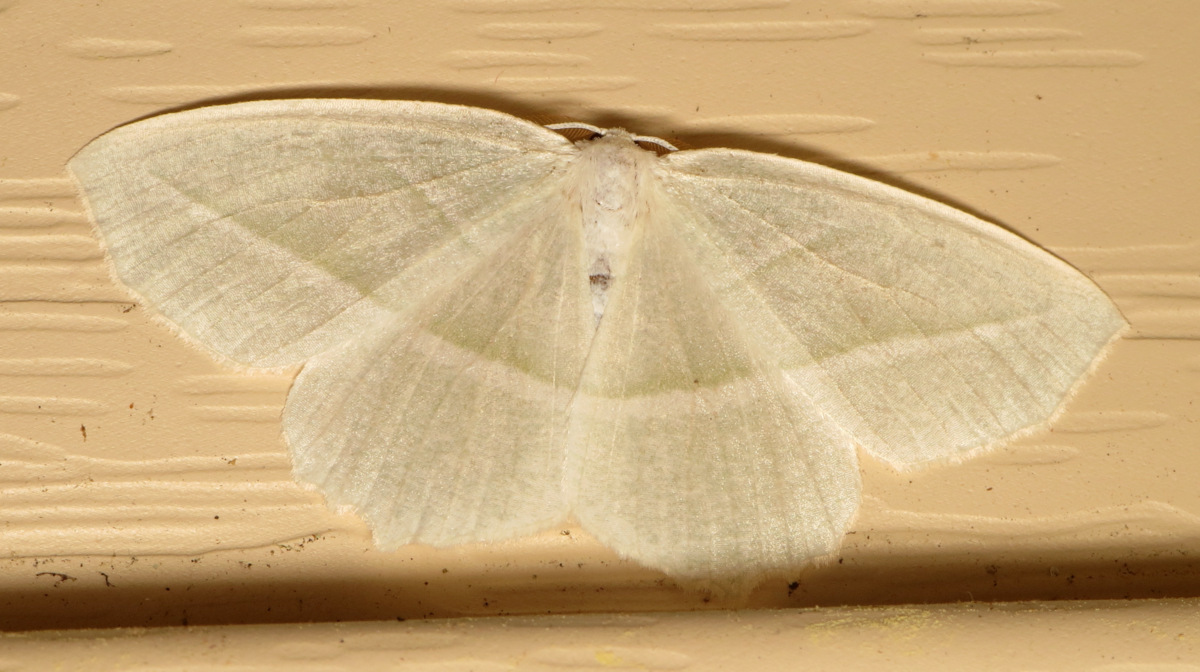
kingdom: Animalia
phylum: Arthropoda
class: Insecta
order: Lepidoptera
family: Geometridae
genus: Campaea
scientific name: Campaea perlata
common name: Fringed looper
